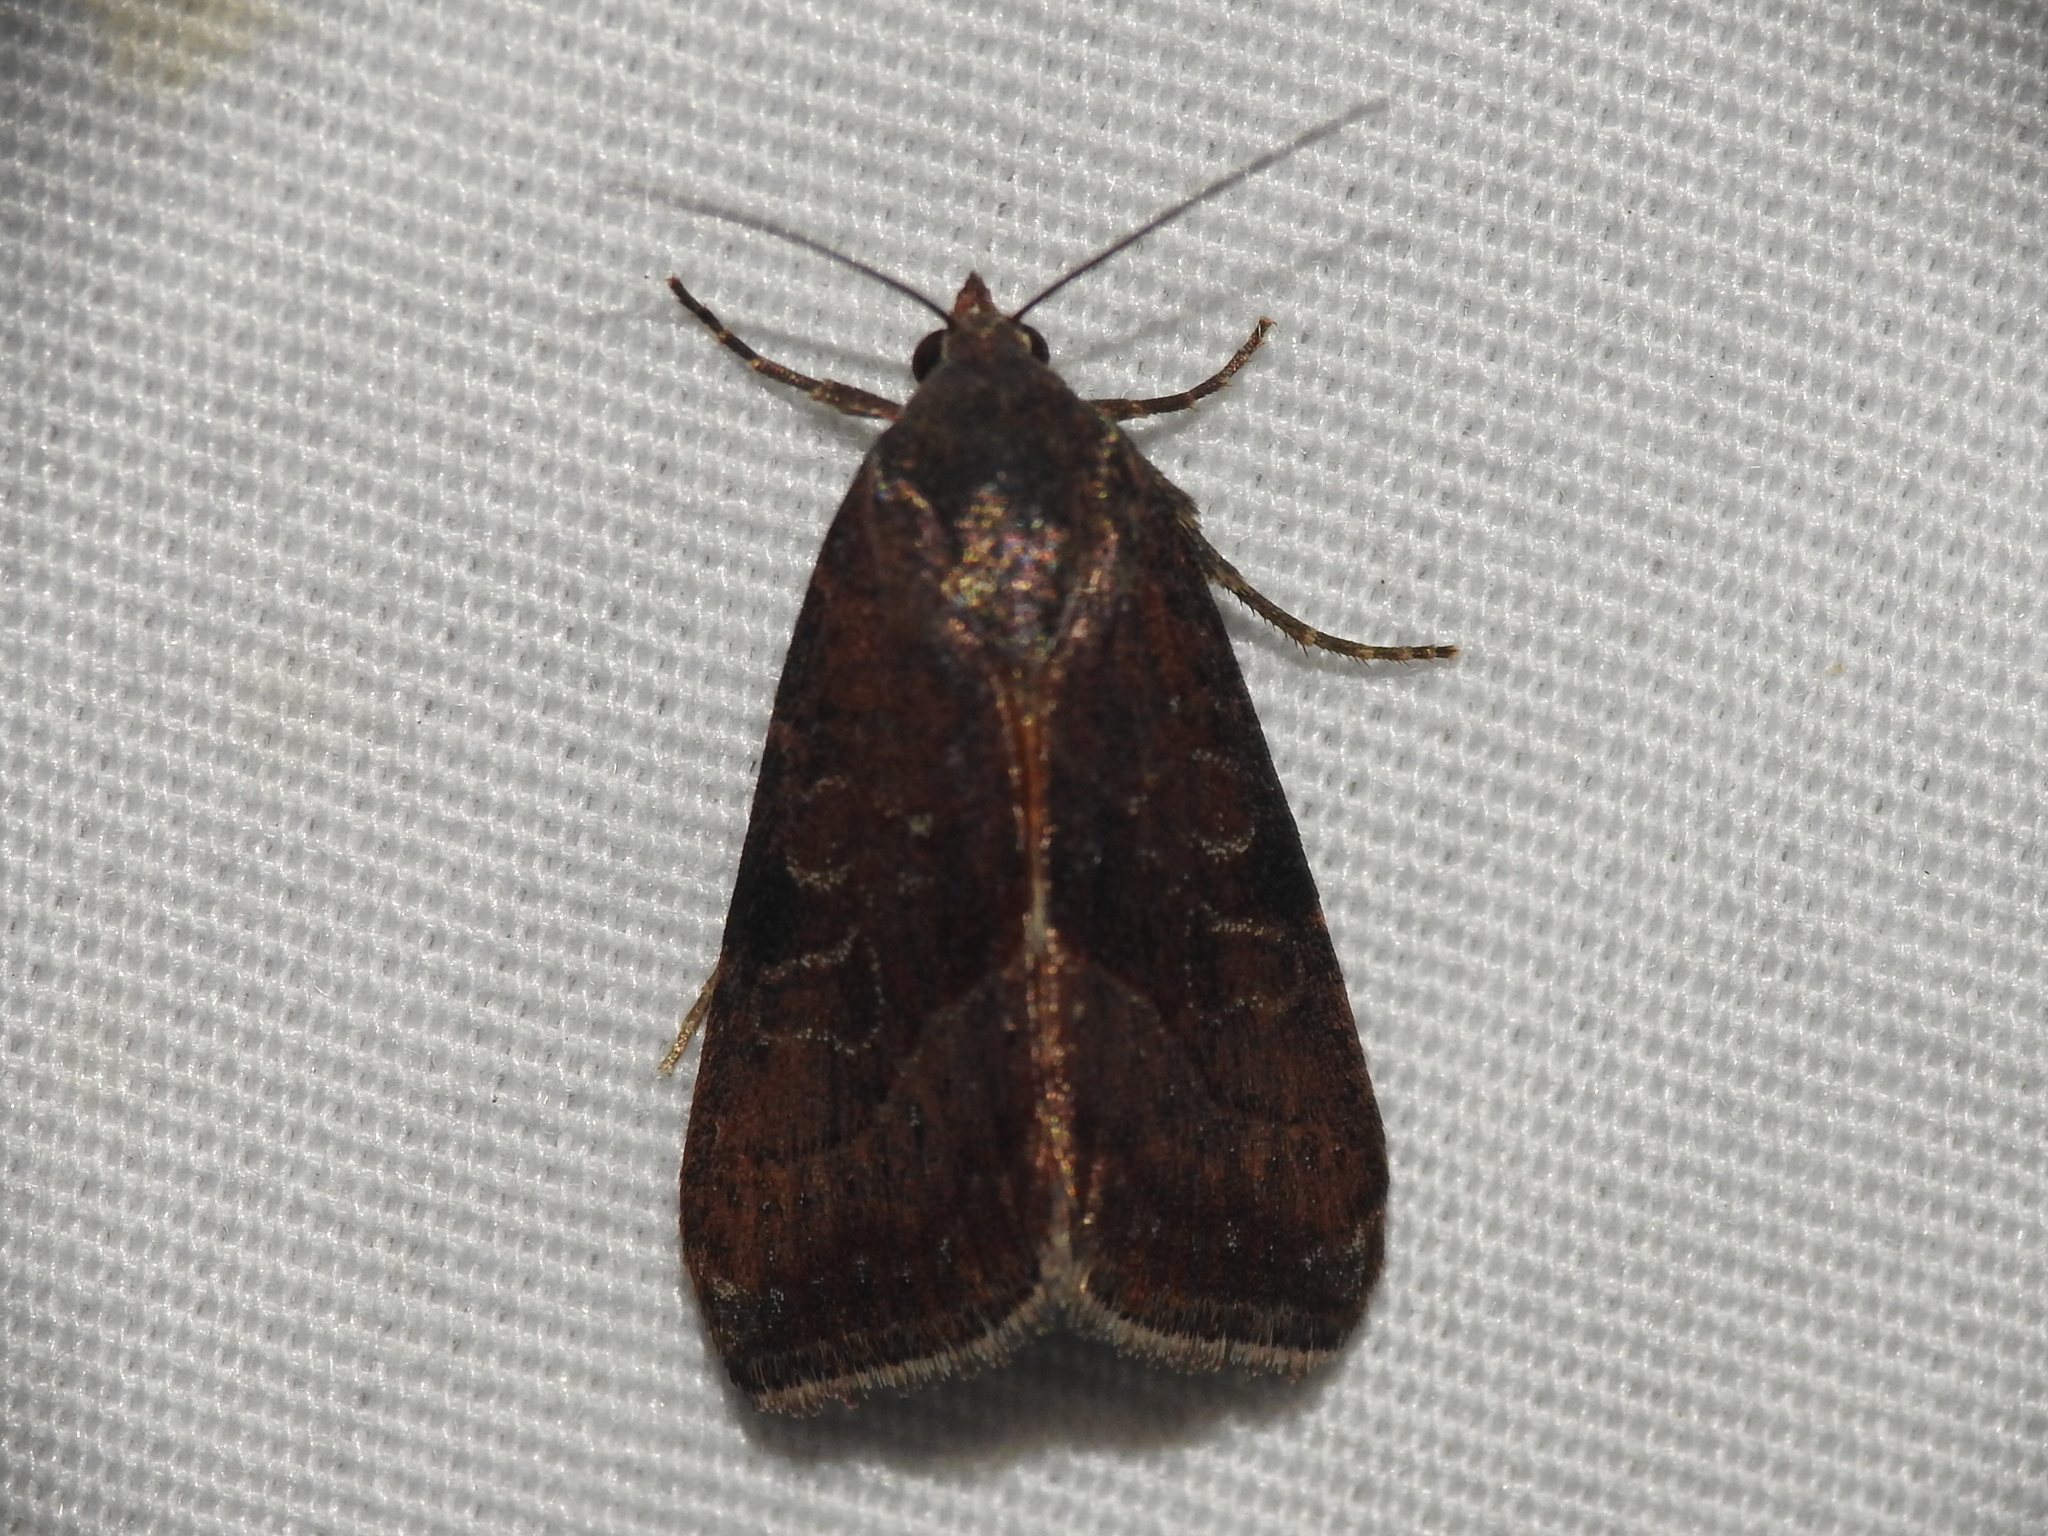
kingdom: Animalia
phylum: Arthropoda
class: Insecta
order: Lepidoptera
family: Noctuidae
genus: Galgula
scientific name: Galgula partita
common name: Wedgeling
